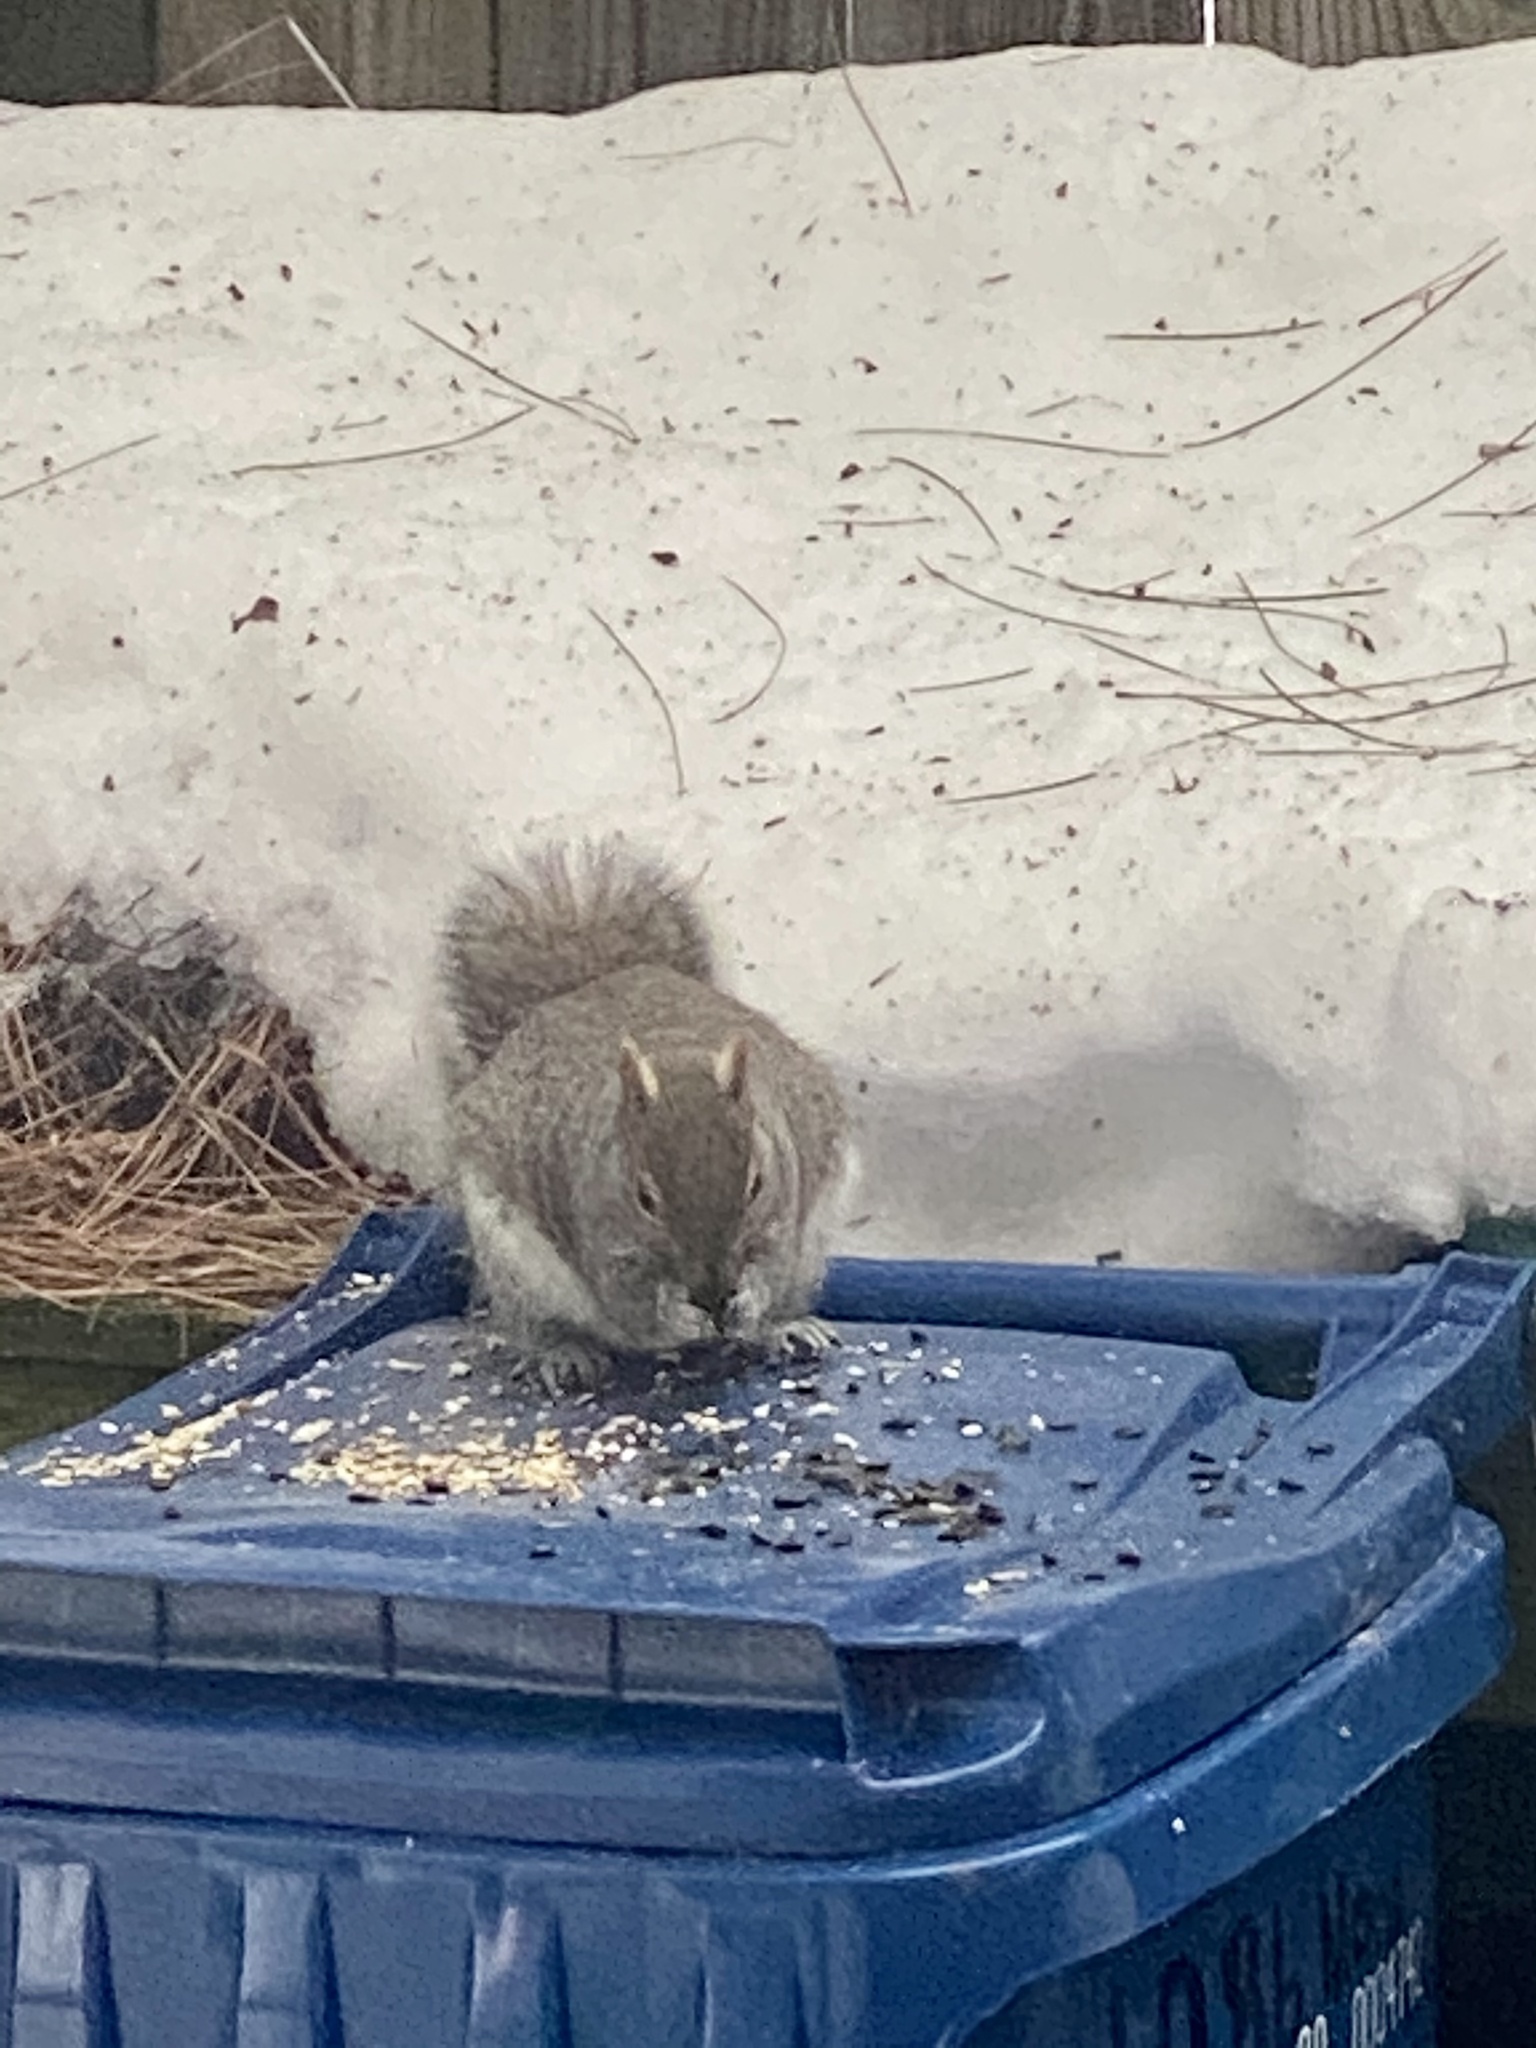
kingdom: Animalia
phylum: Chordata
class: Mammalia
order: Rodentia
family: Sciuridae
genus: Sciurus
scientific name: Sciurus carolinensis
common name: Eastern gray squirrel
